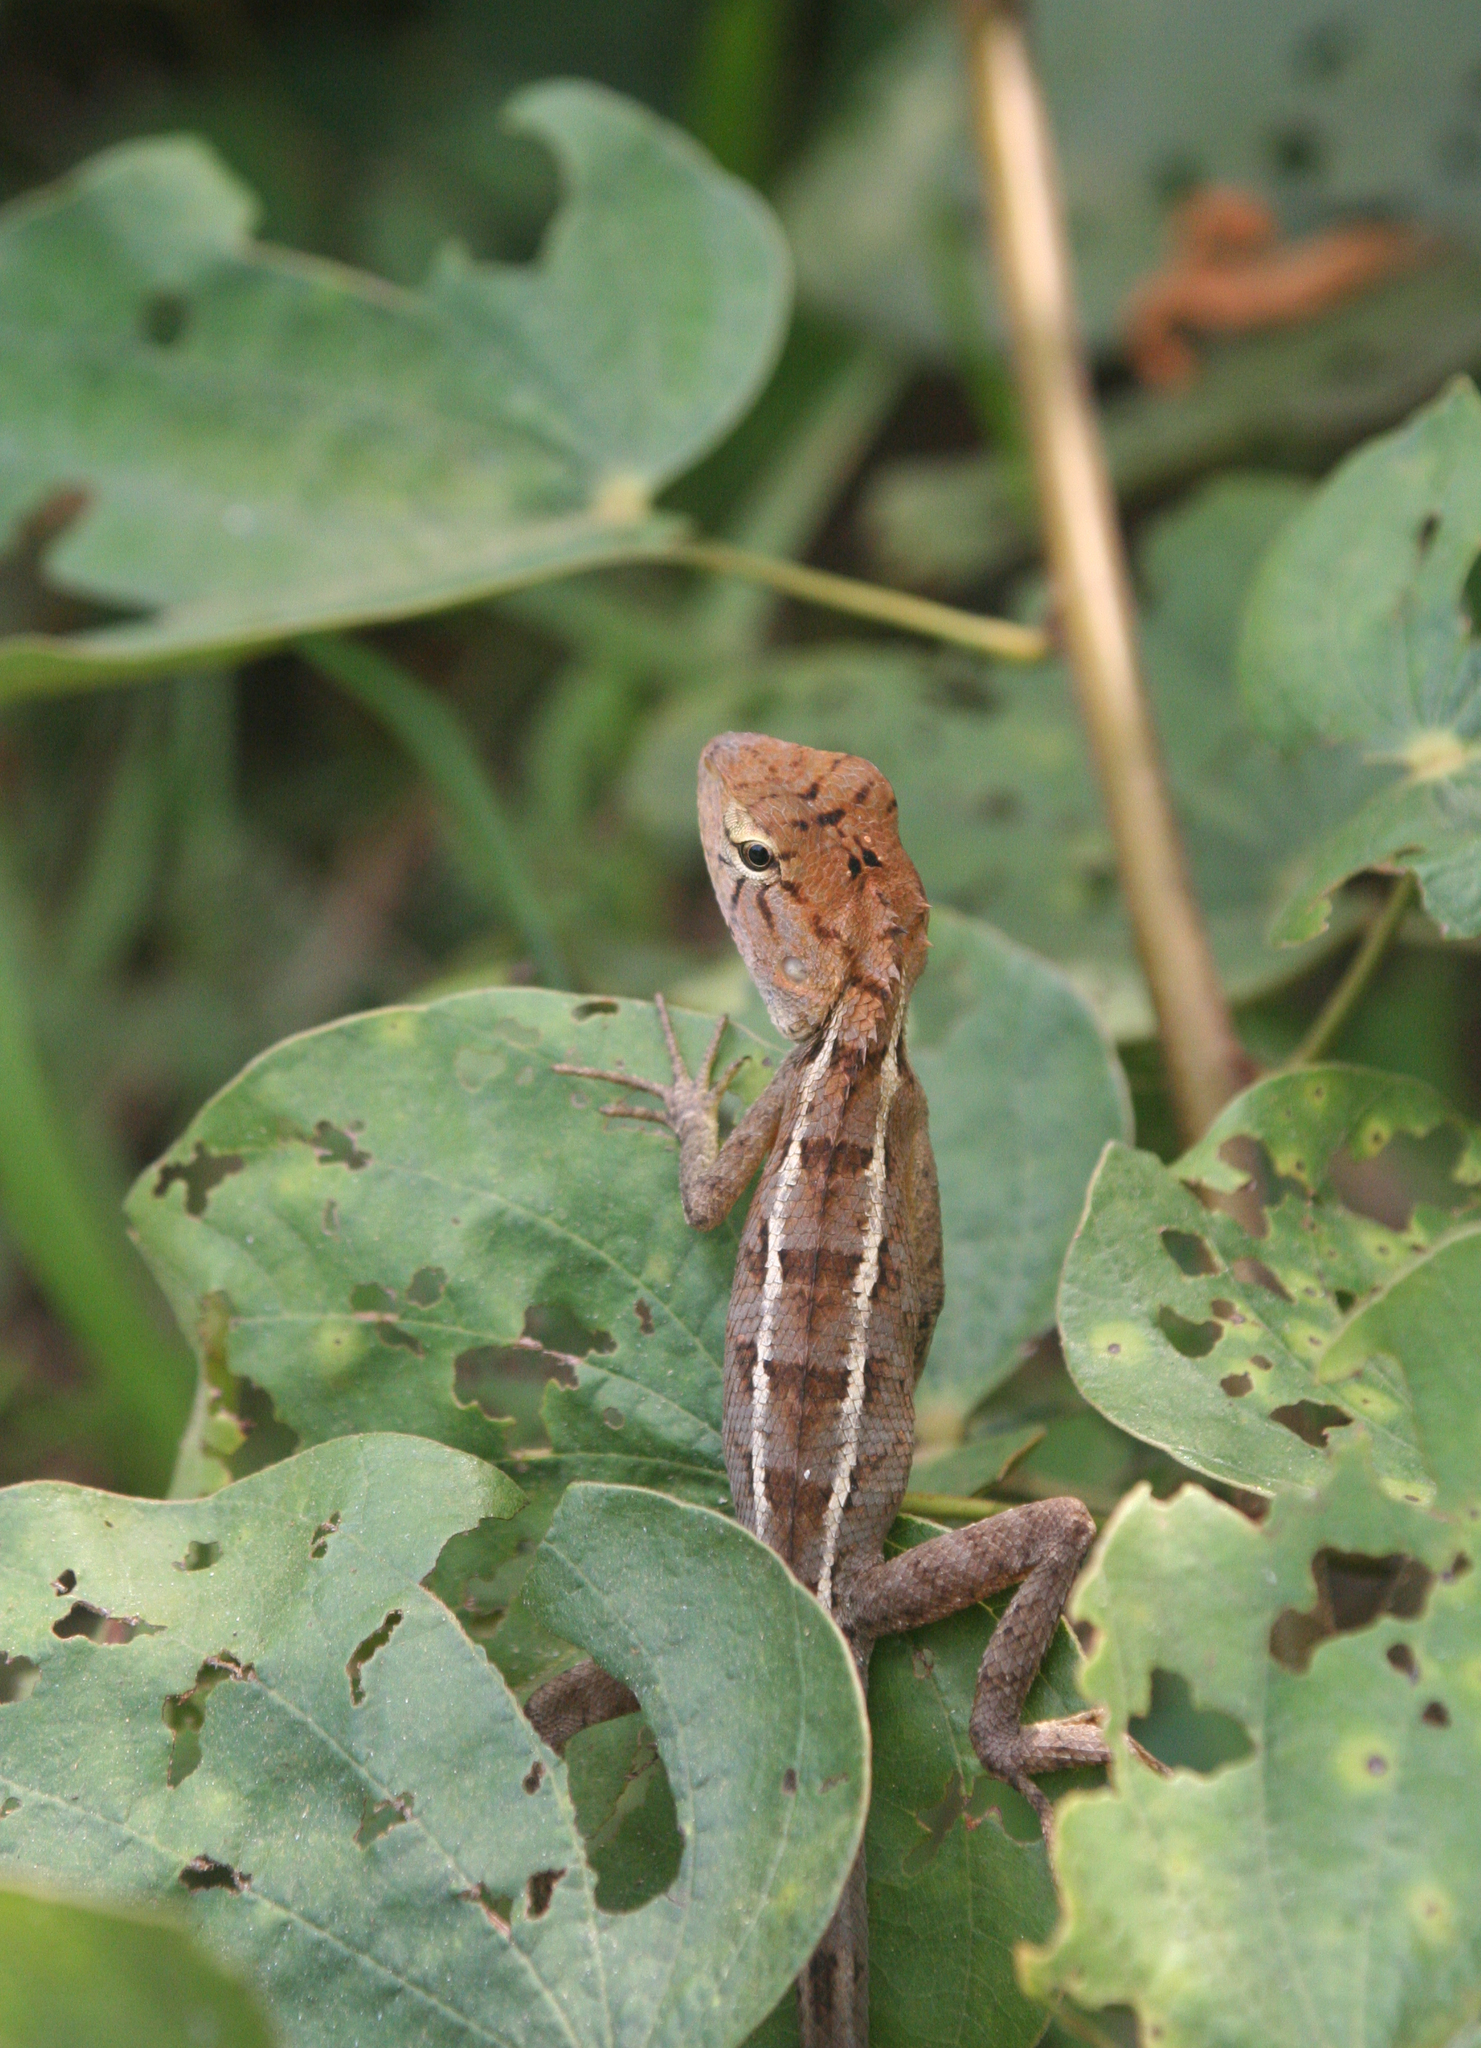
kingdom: Animalia
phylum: Chordata
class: Squamata
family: Agamidae
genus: Calotes
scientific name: Calotes versicolor
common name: Oriental garden lizard
